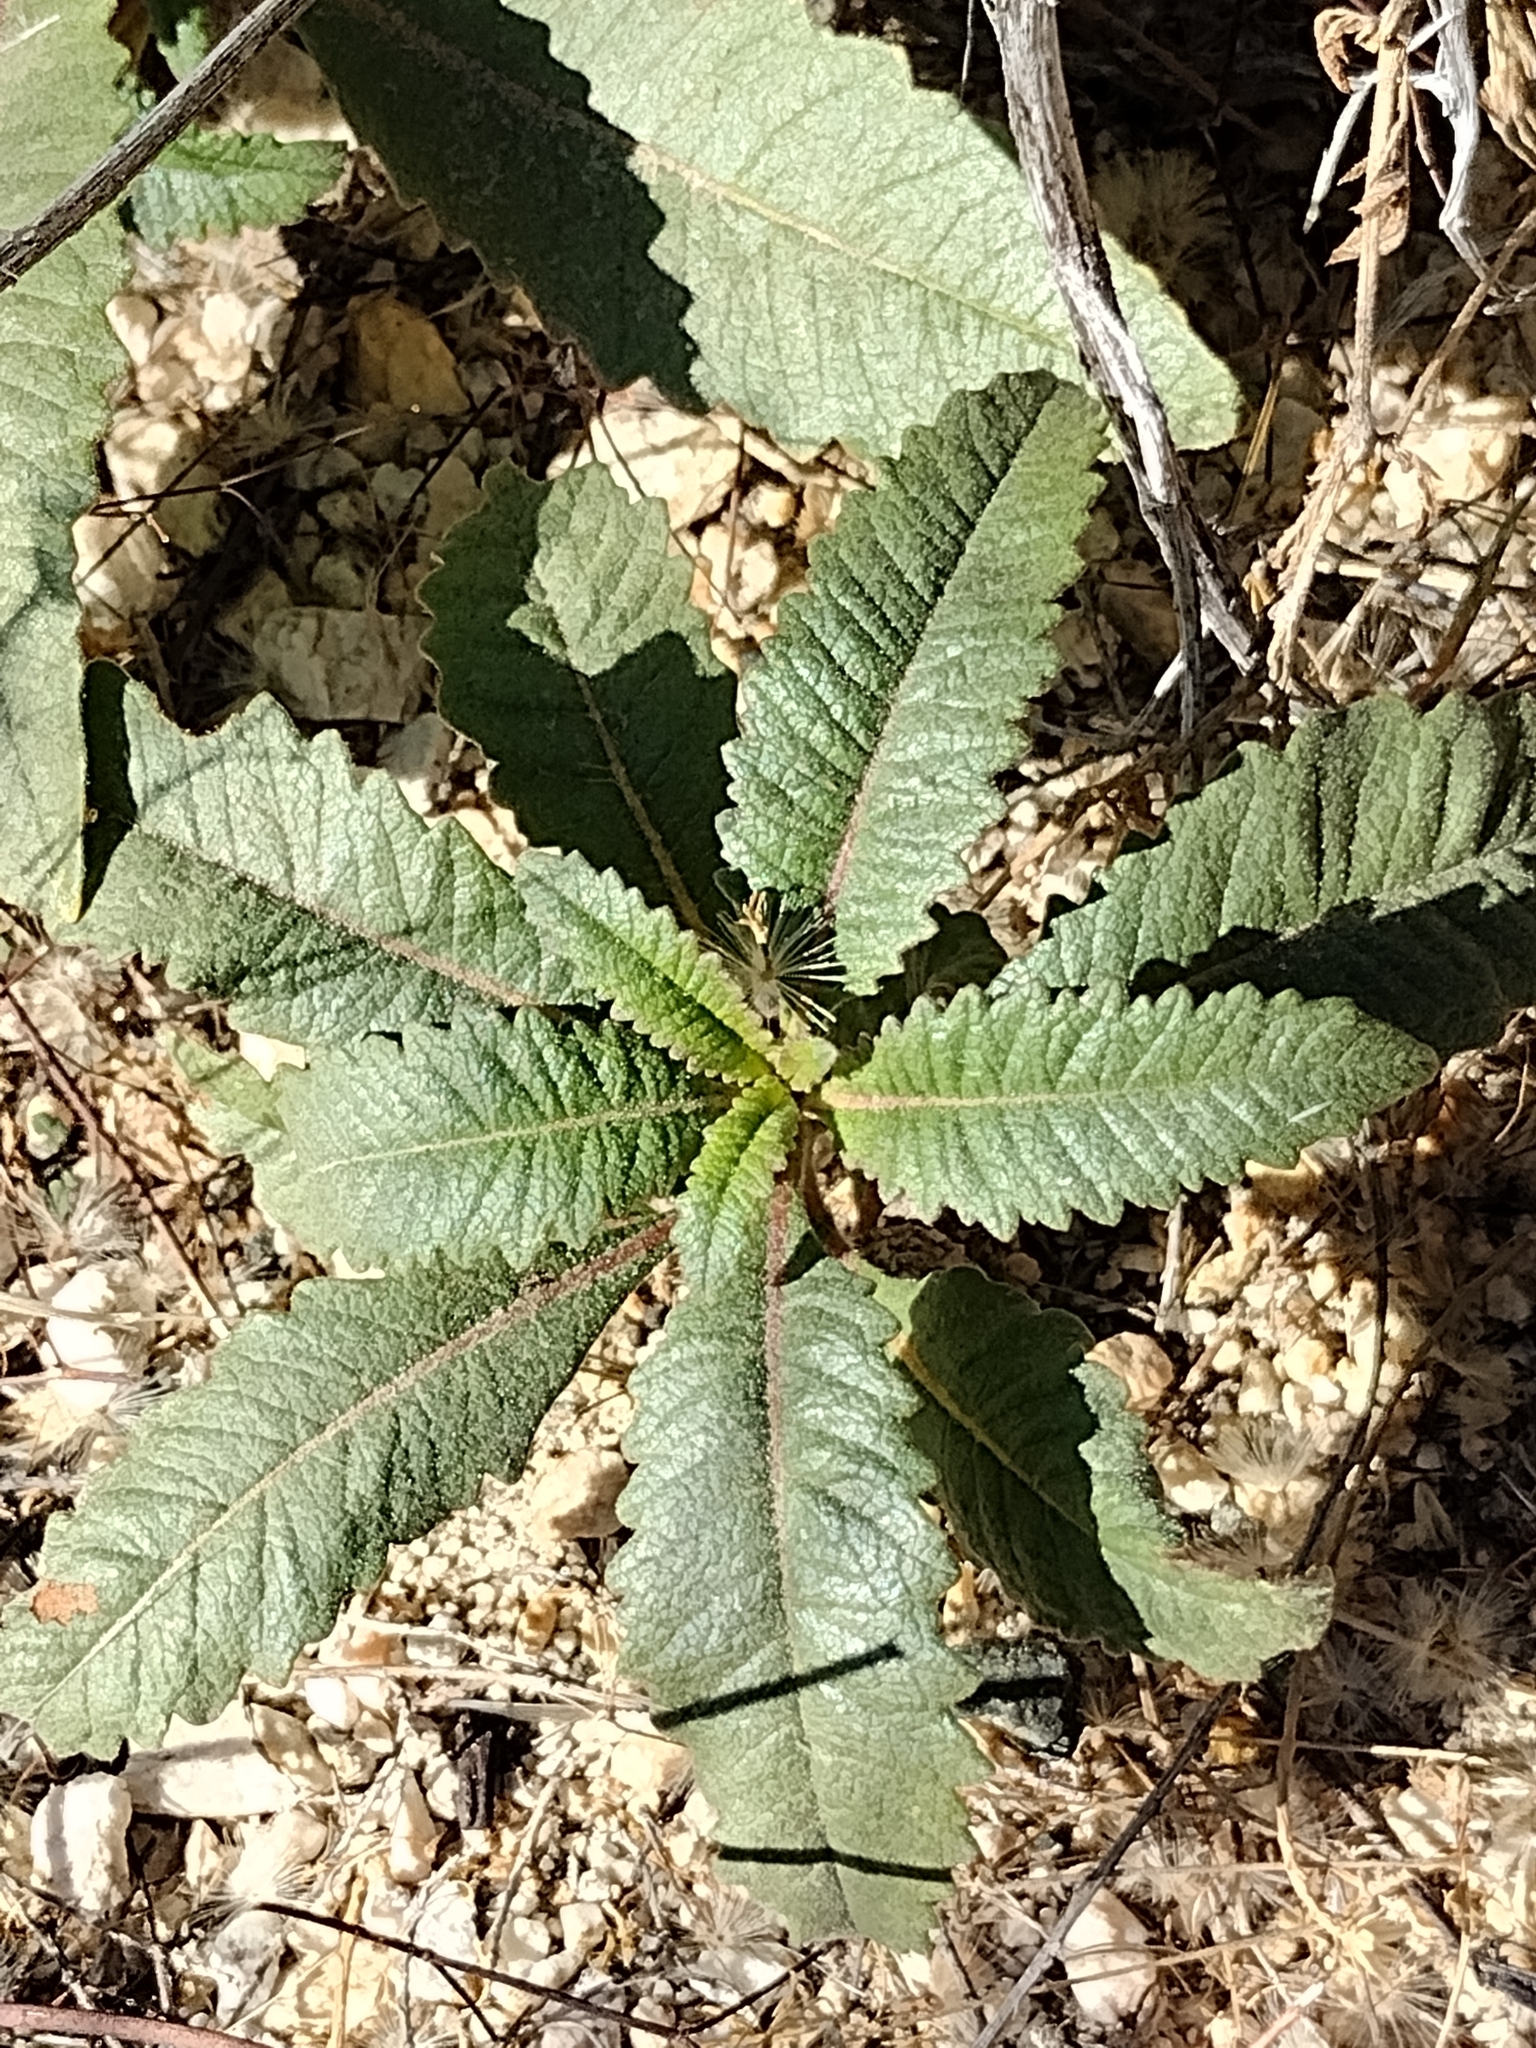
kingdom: Plantae
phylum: Tracheophyta
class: Magnoliopsida
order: Boraginales
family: Namaceae
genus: Eriodictyon
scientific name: Eriodictyon trichocalyx
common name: Hairy yerba-santa
